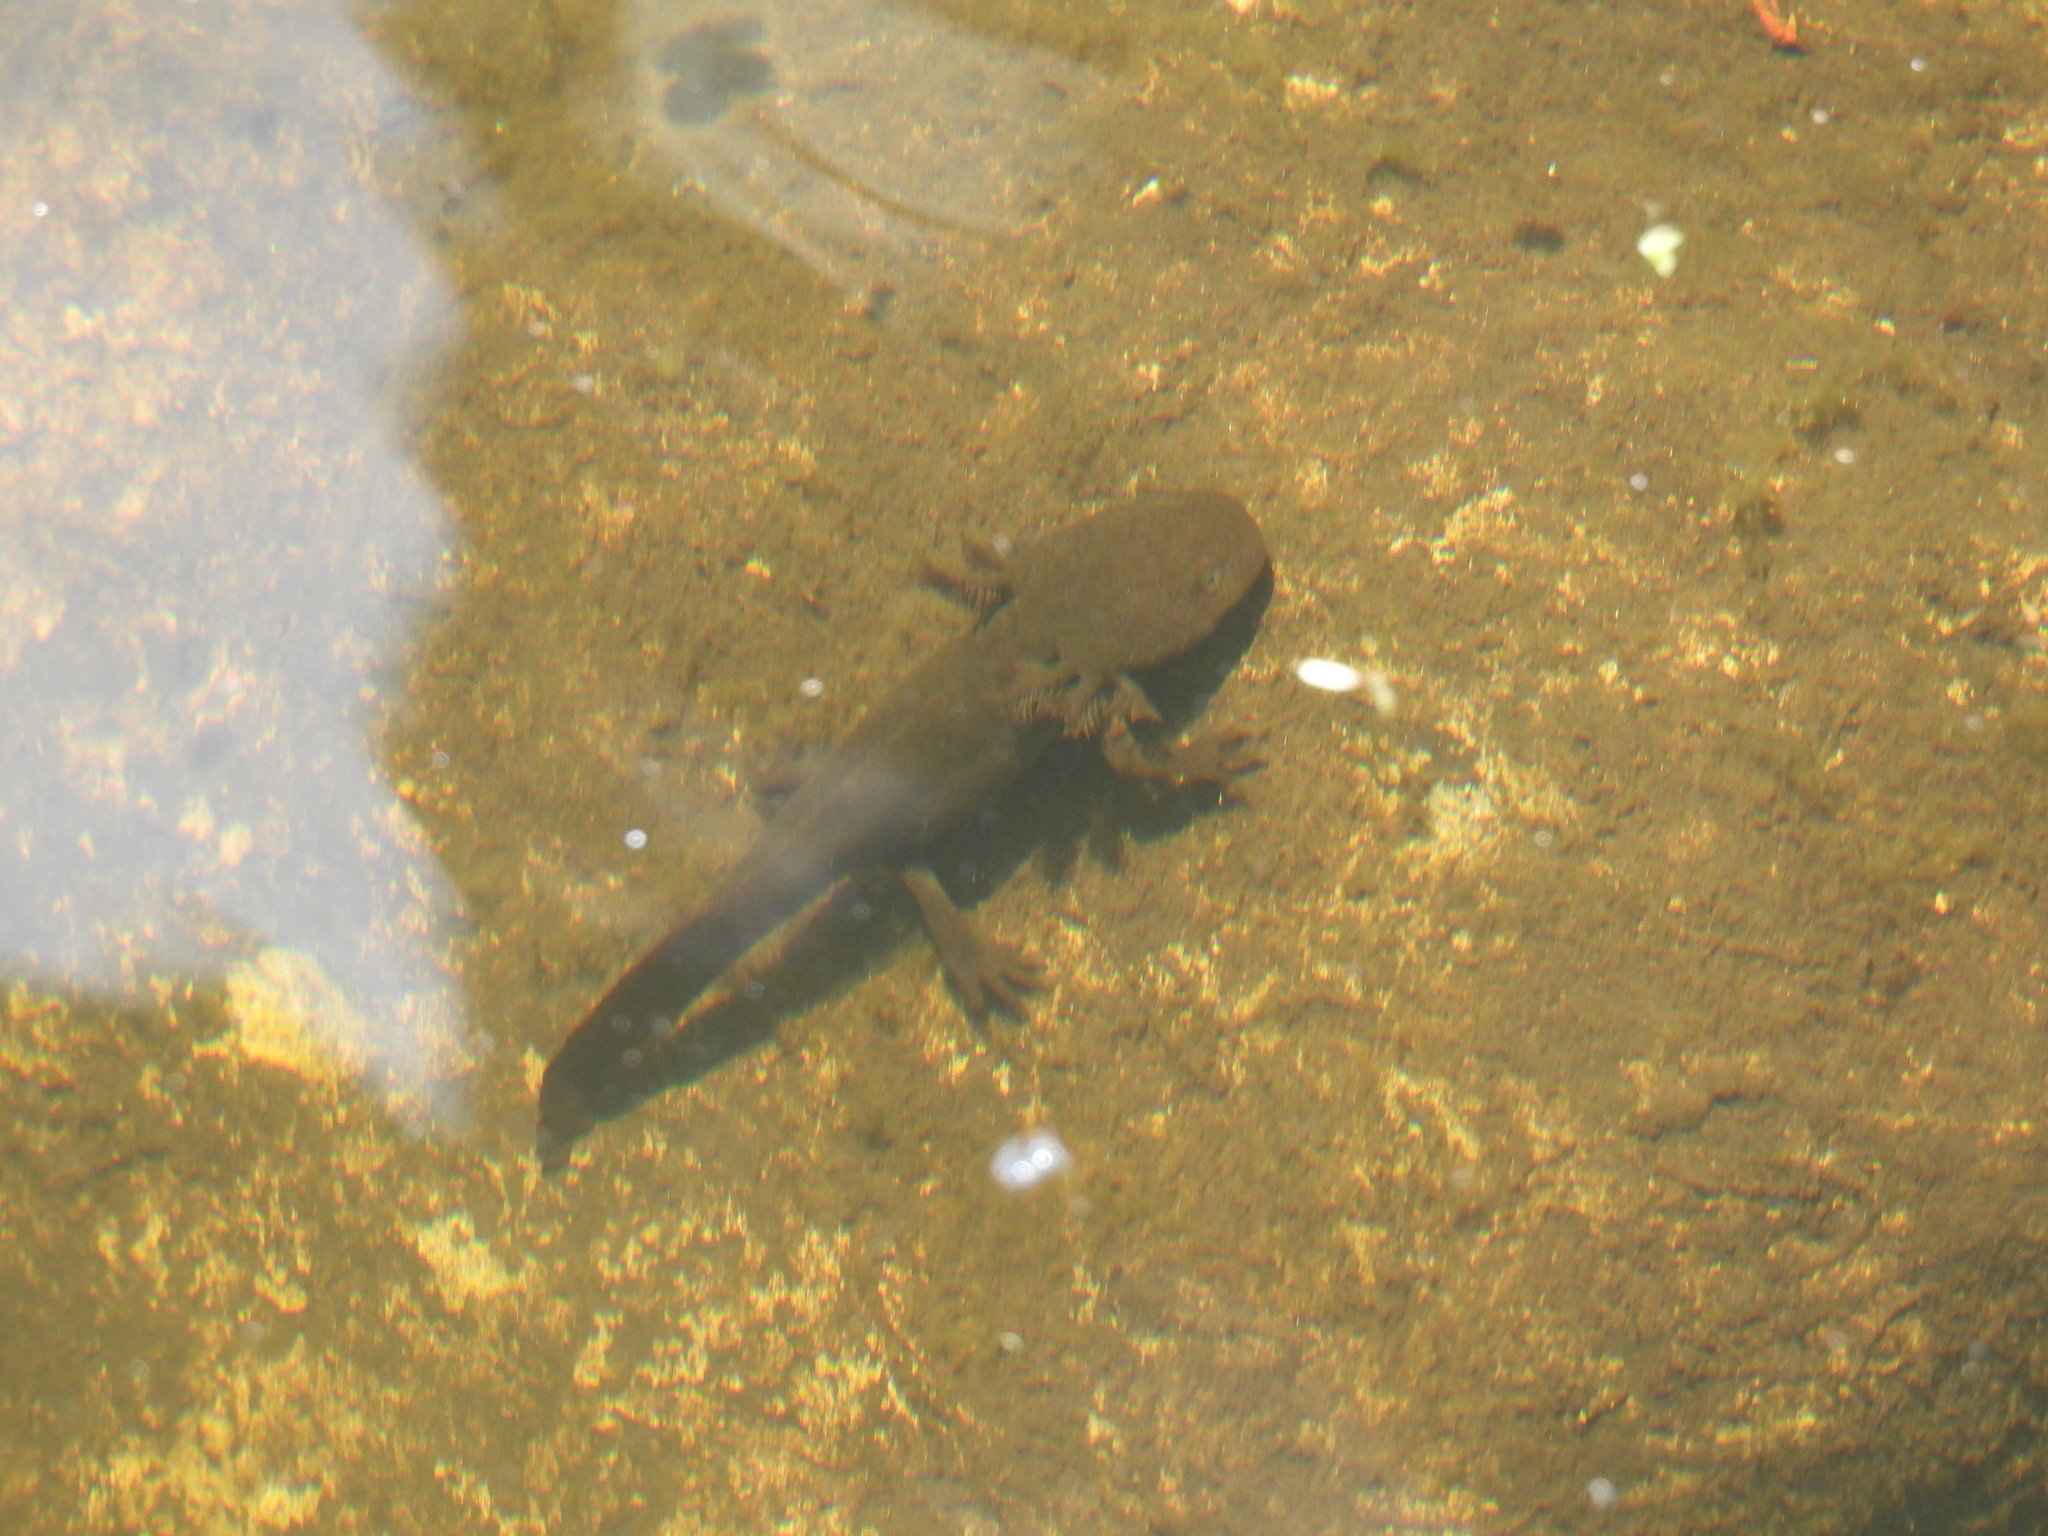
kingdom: Animalia
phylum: Chordata
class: Amphibia
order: Caudata
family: Ambystomatidae
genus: Ambystoma
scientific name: Ambystoma rivulare
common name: Michoacan stream salamander
